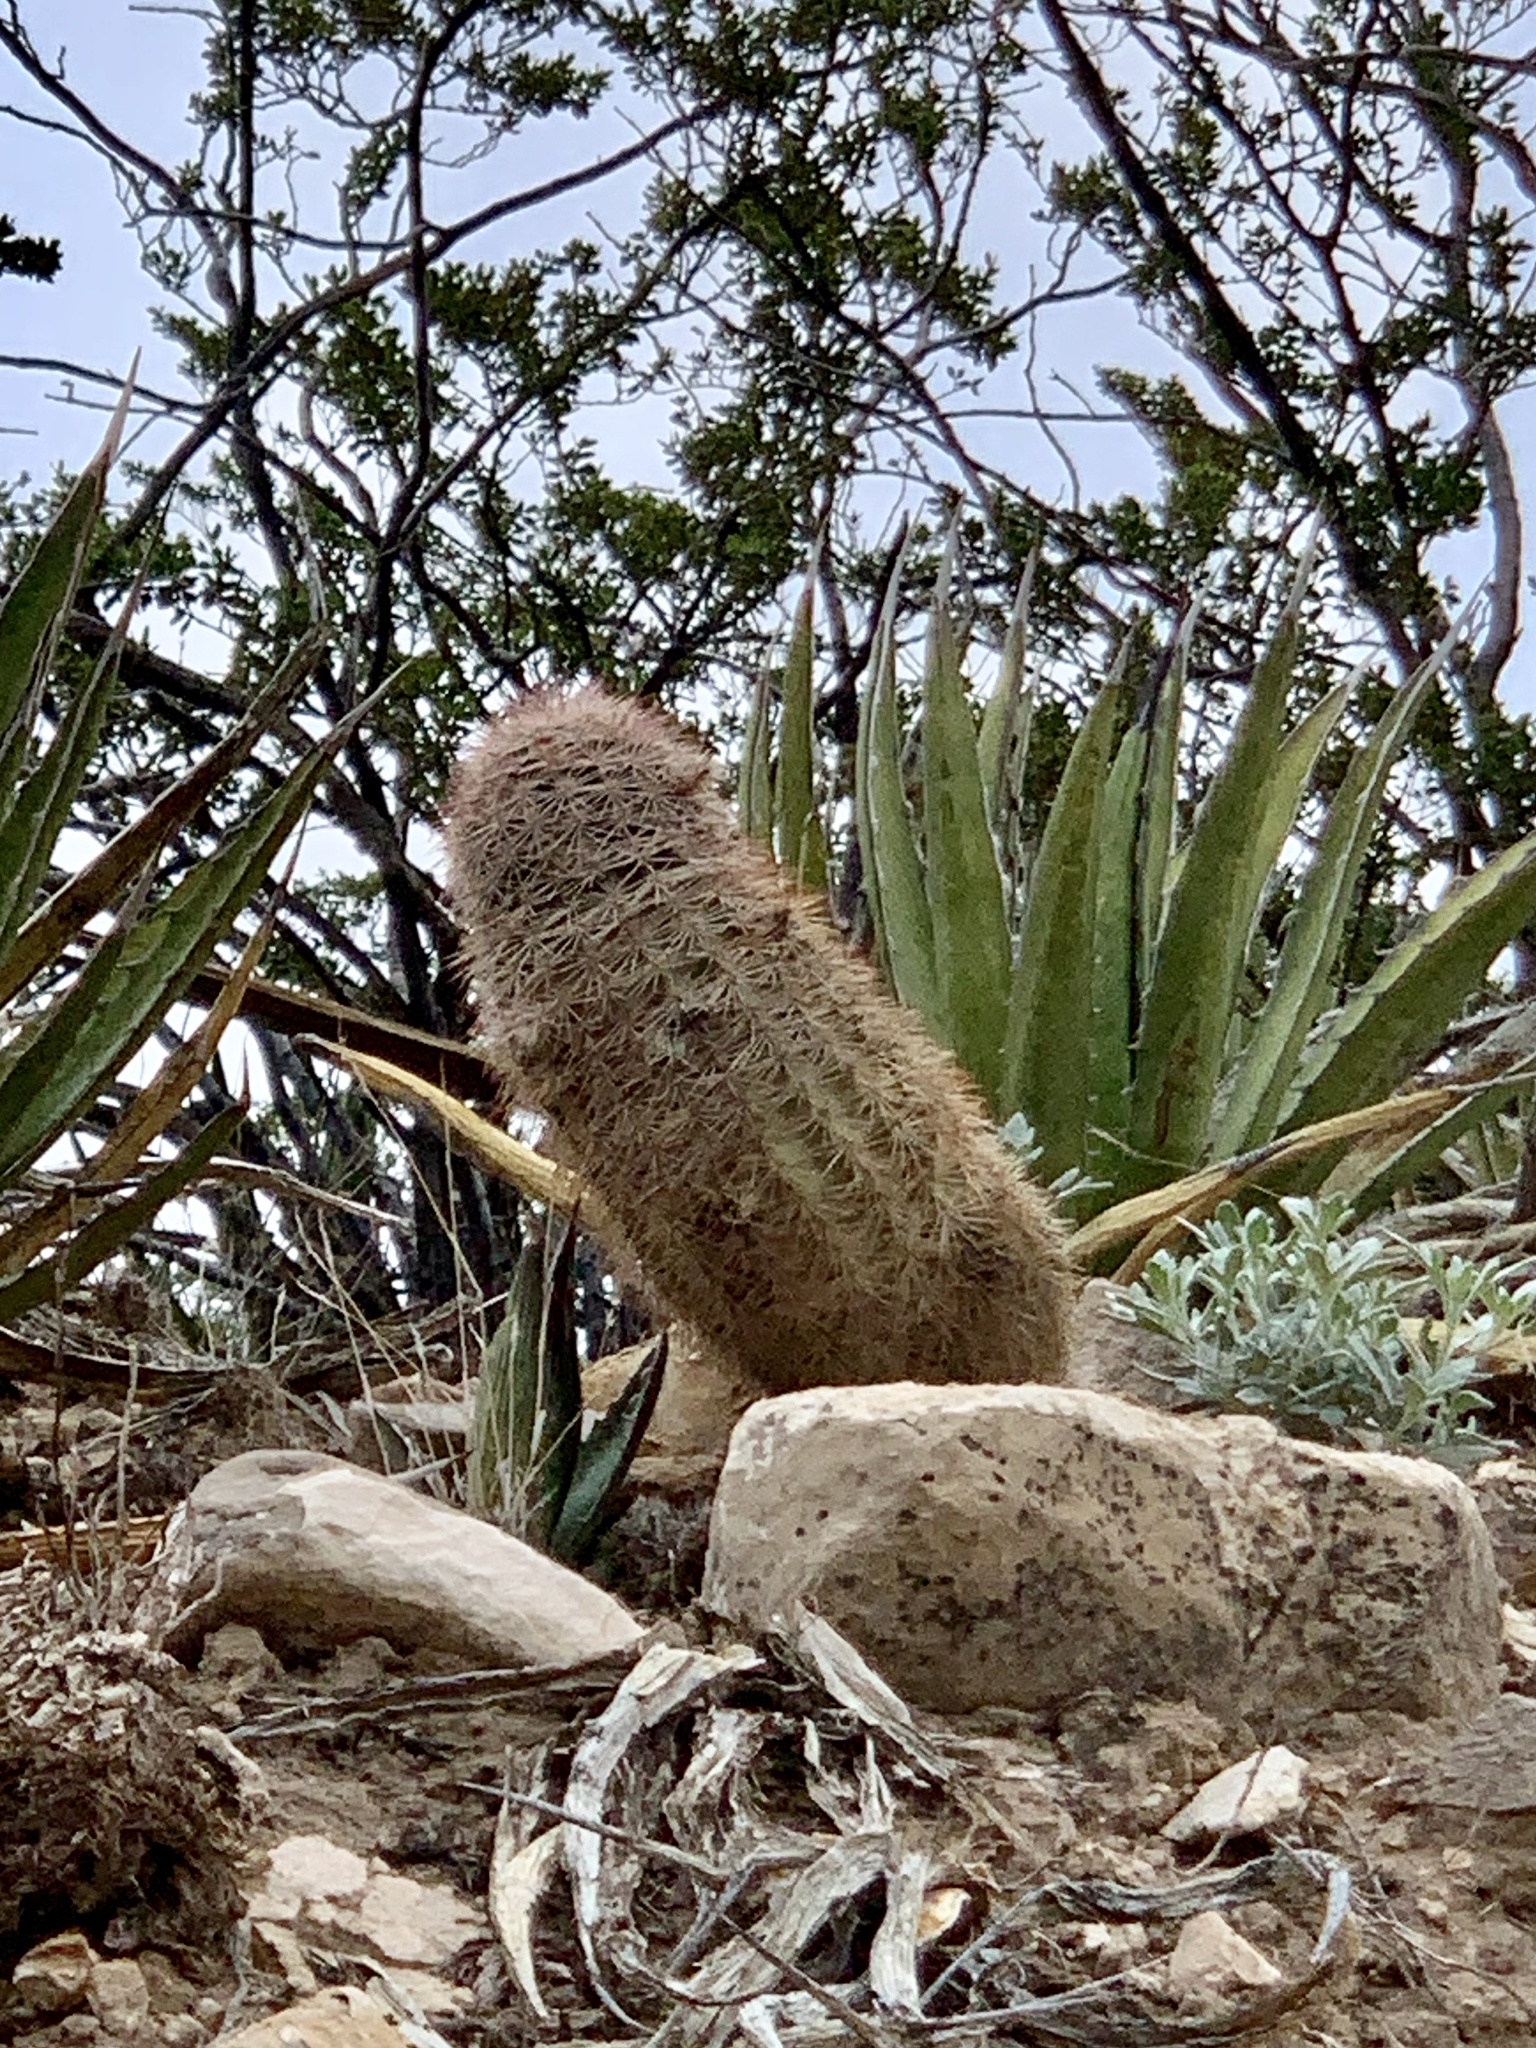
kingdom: Plantae
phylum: Tracheophyta
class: Magnoliopsida
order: Caryophyllales
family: Cactaceae
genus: Echinocereus
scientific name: Echinocereus dasyacanthus
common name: Spiny hedgehog cactus
